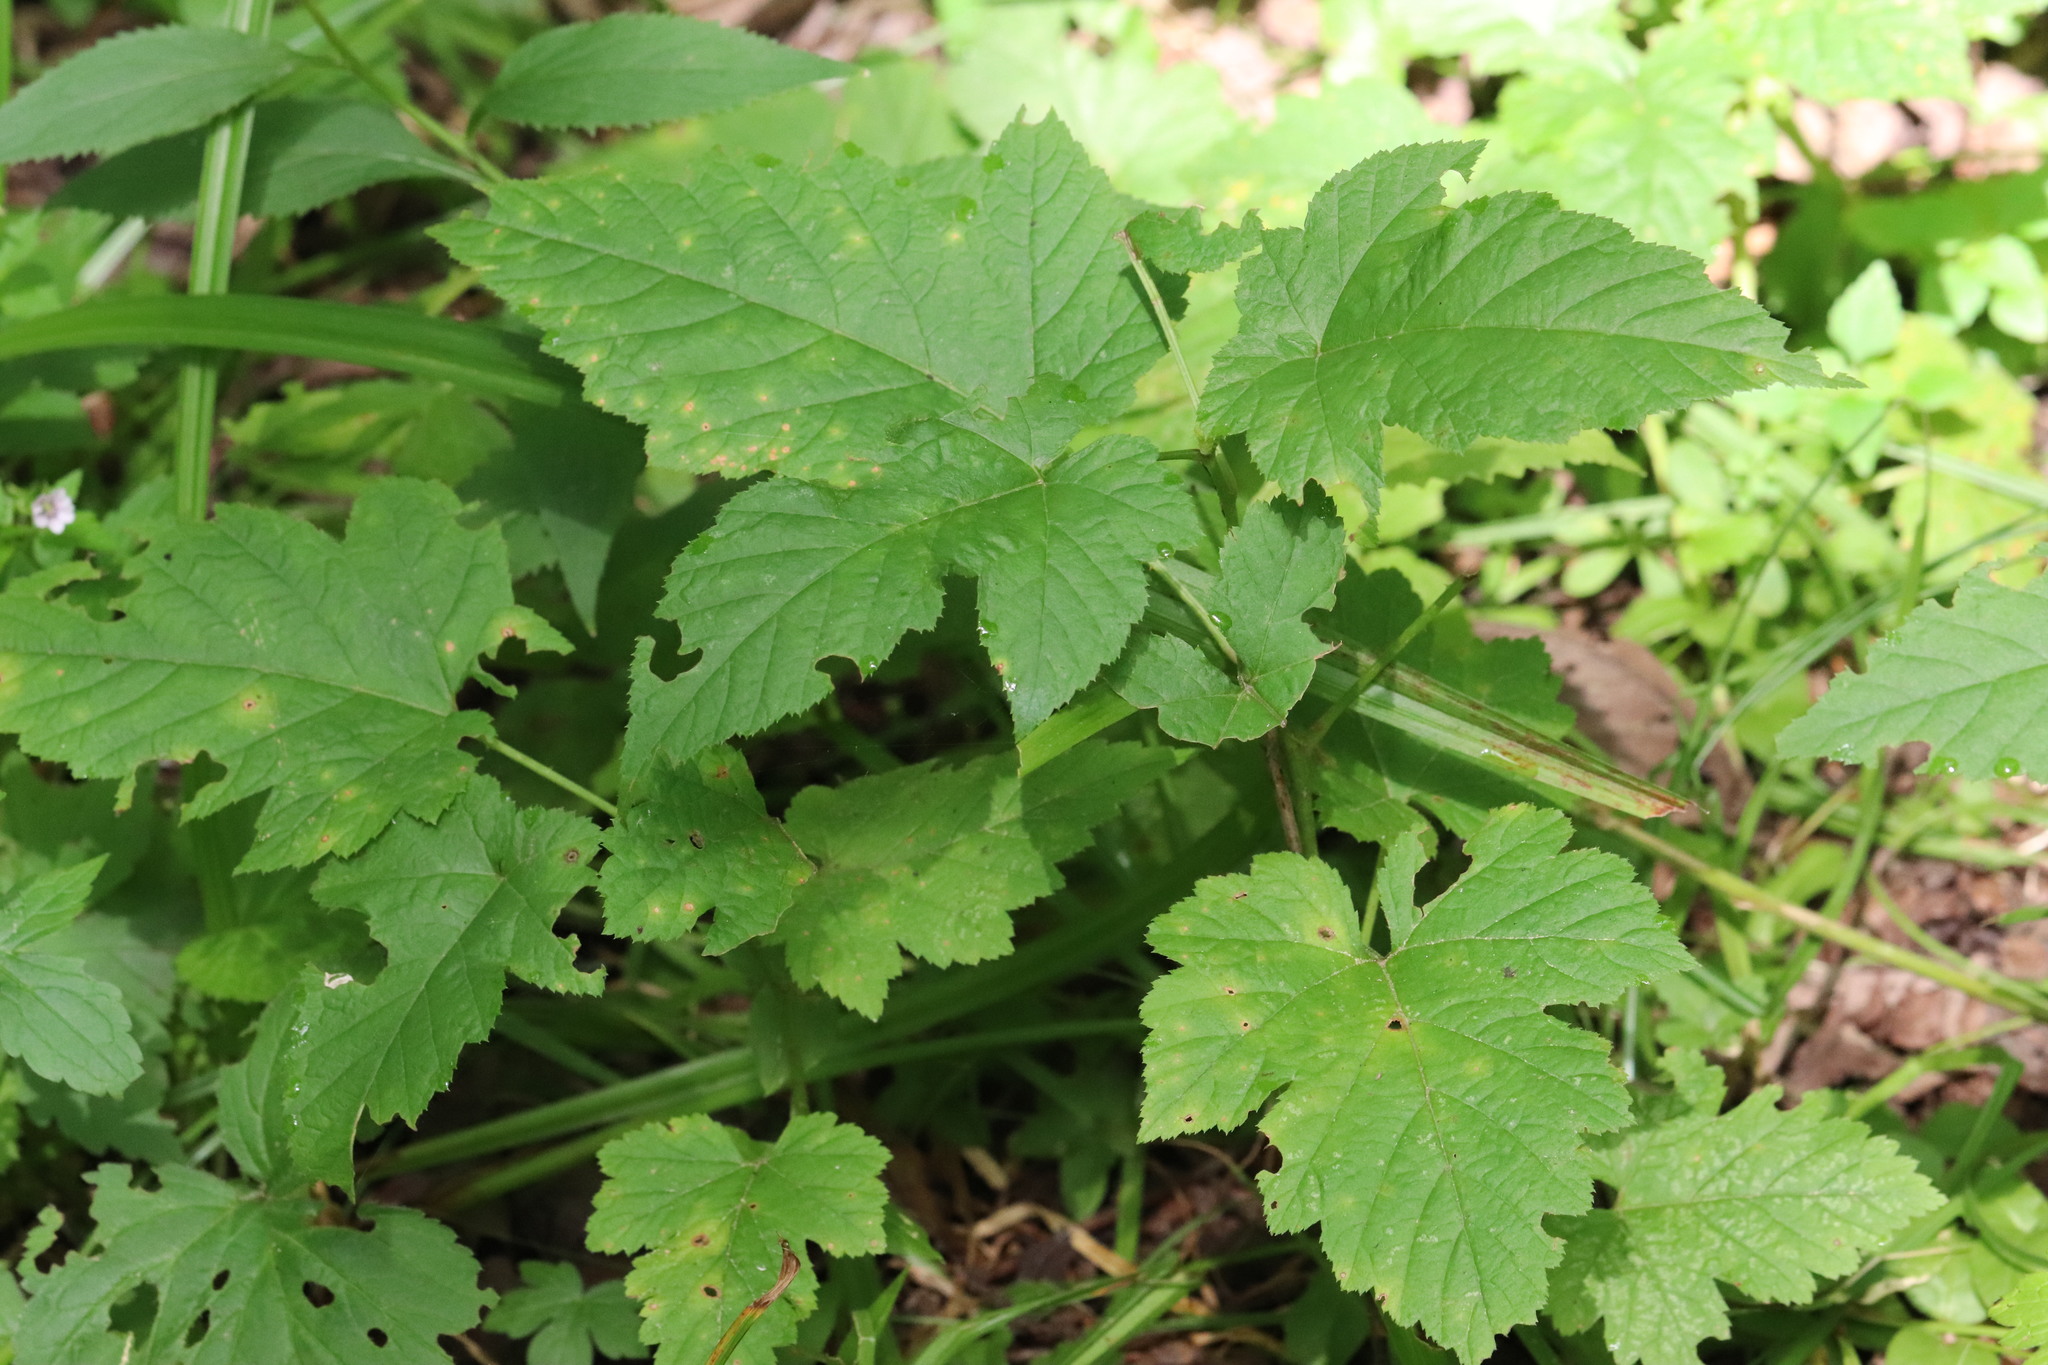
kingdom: Plantae
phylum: Tracheophyta
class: Magnoliopsida
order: Rosales
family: Rosaceae
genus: Rubus
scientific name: Rubus crataegifolius
